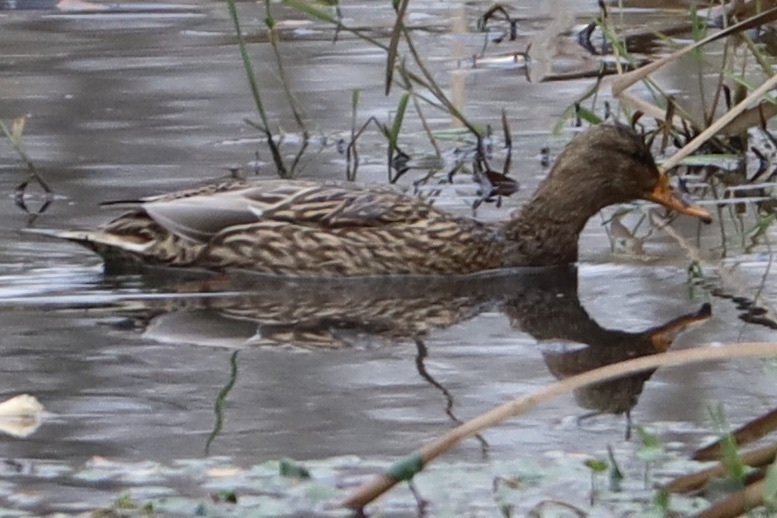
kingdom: Animalia
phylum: Chordata
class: Aves
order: Anseriformes
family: Anatidae
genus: Anas
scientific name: Anas platyrhynchos
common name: Mallard
